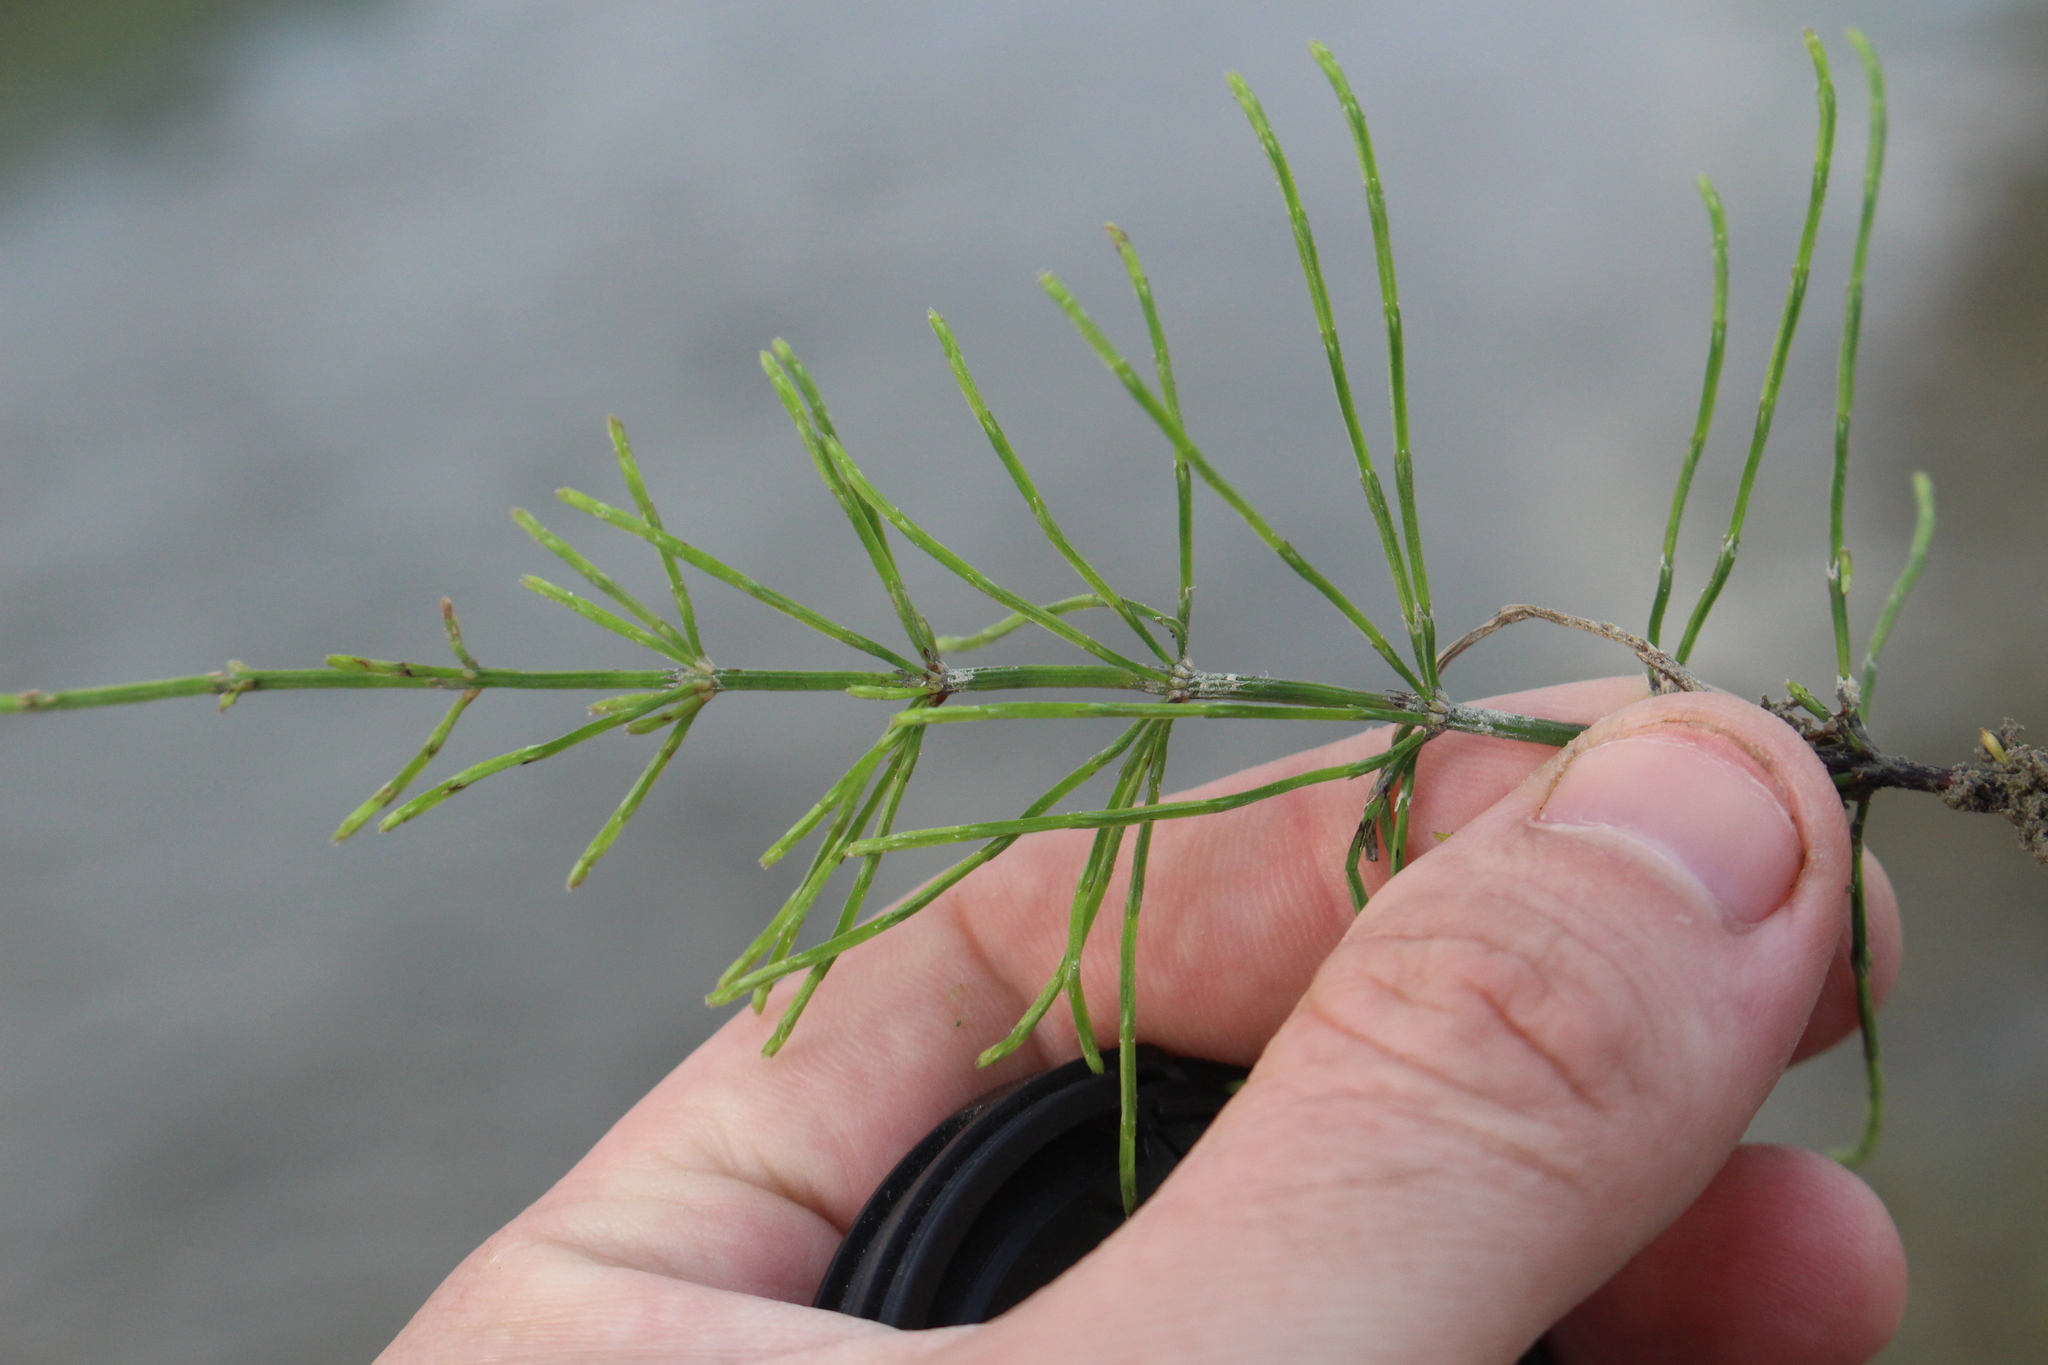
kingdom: Plantae
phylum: Tracheophyta
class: Polypodiopsida
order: Equisetales
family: Equisetaceae
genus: Equisetum
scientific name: Equisetum arvense
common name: Field horsetail
